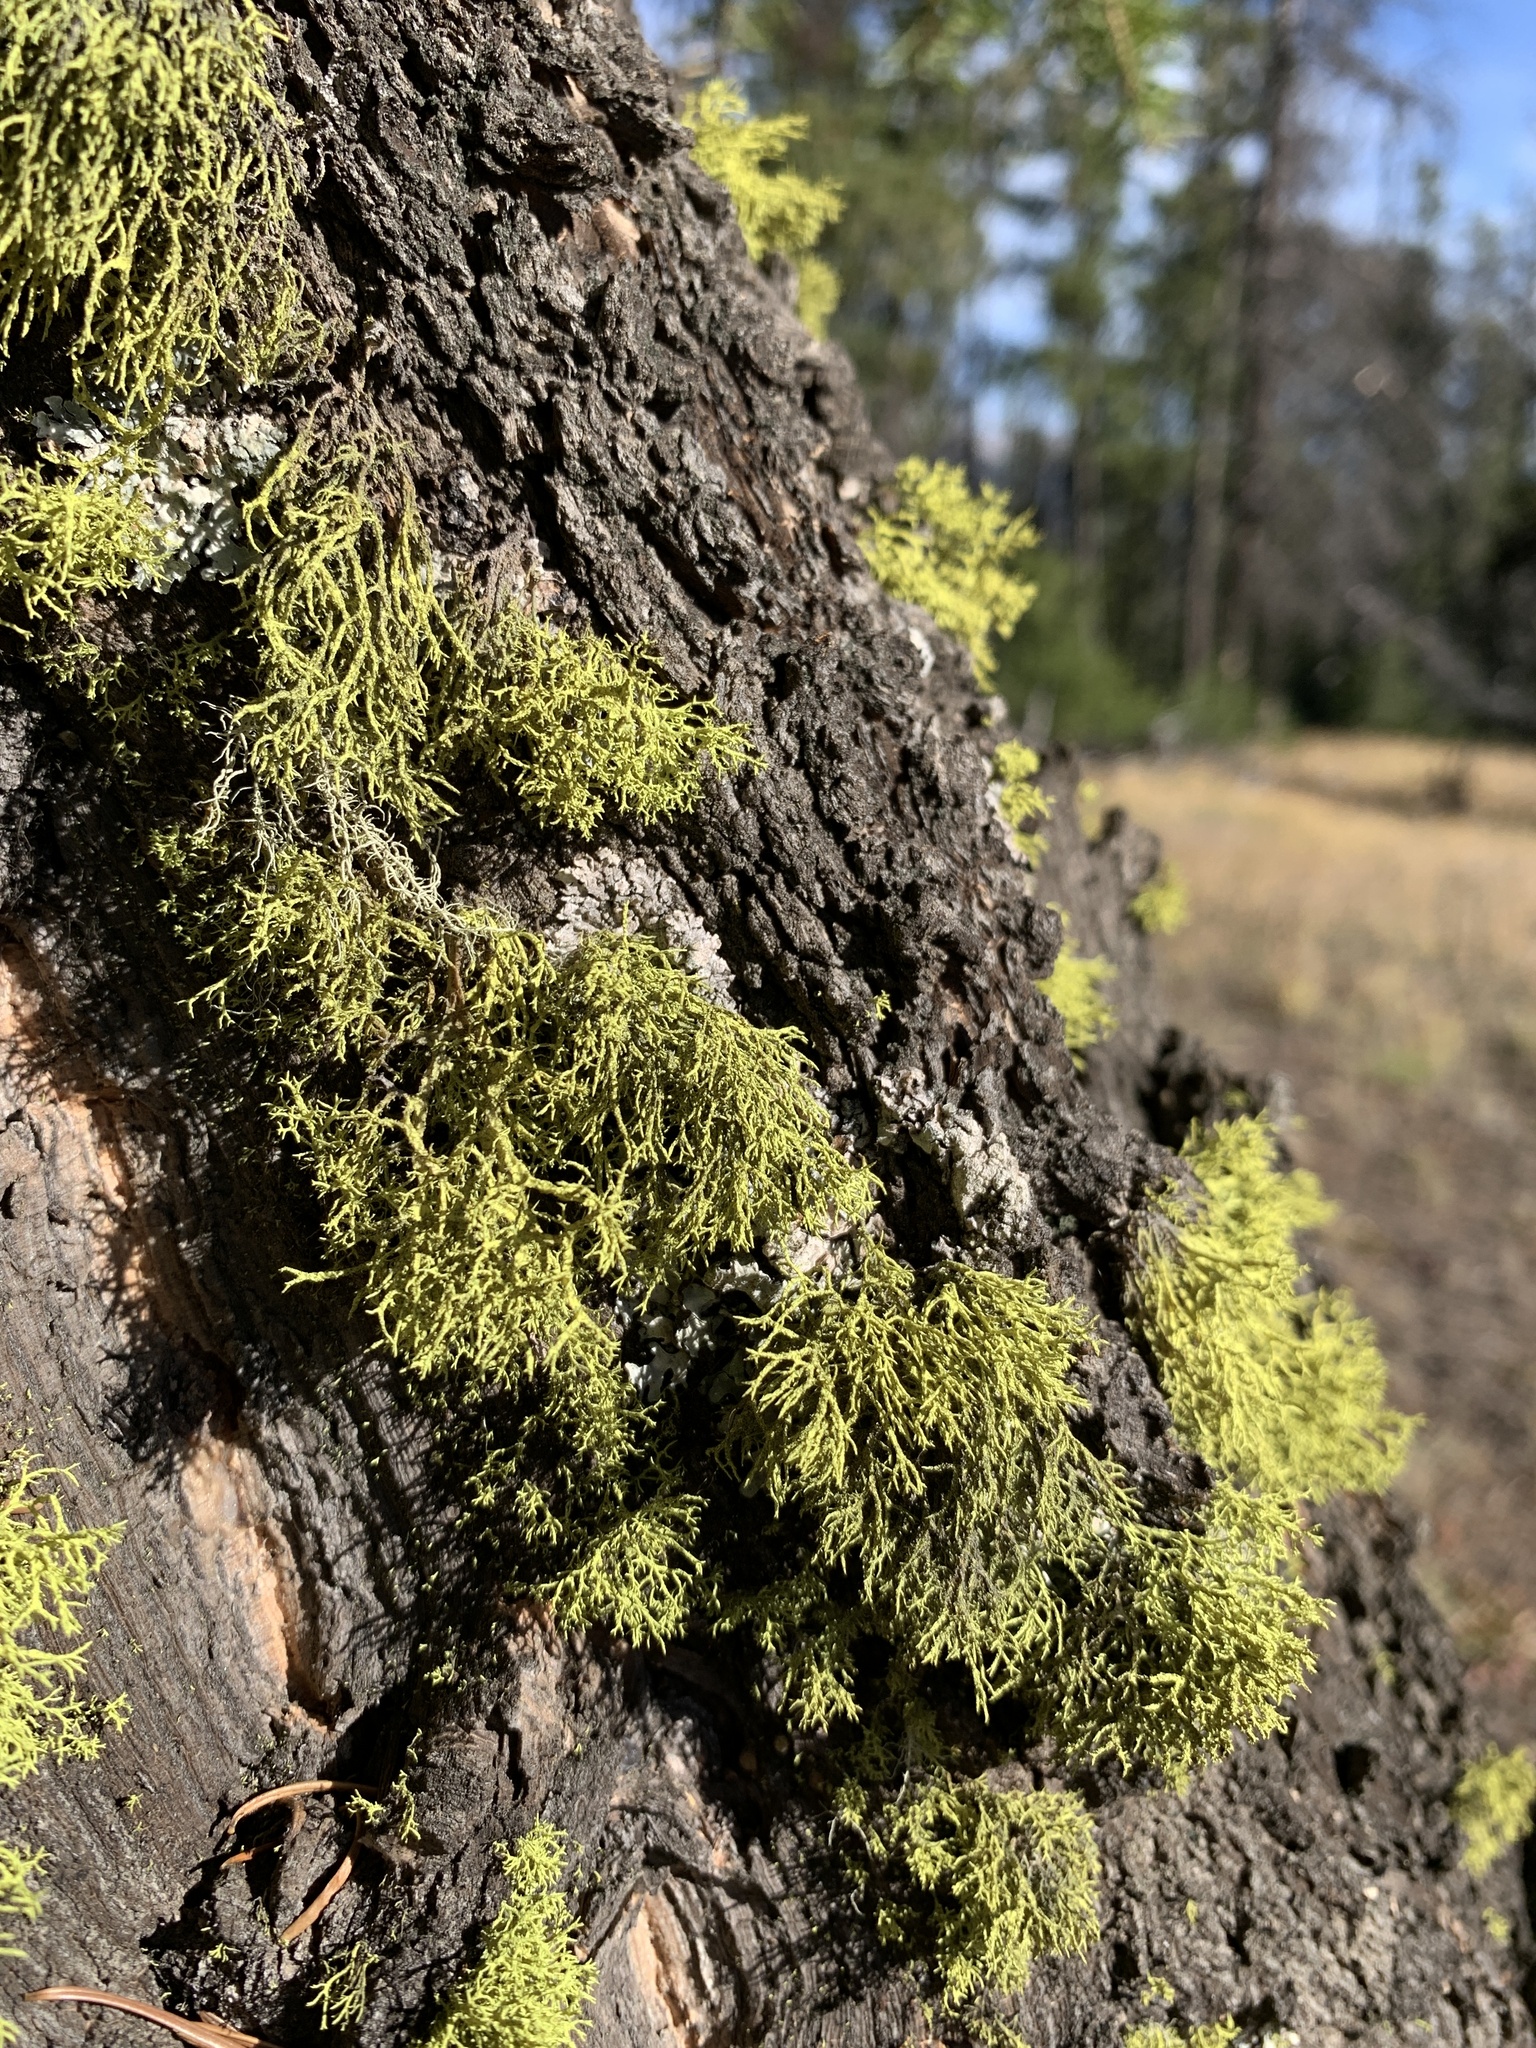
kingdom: Fungi
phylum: Ascomycota
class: Lecanoromycetes
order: Lecanorales
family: Parmeliaceae
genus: Letharia
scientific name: Letharia vulpina
